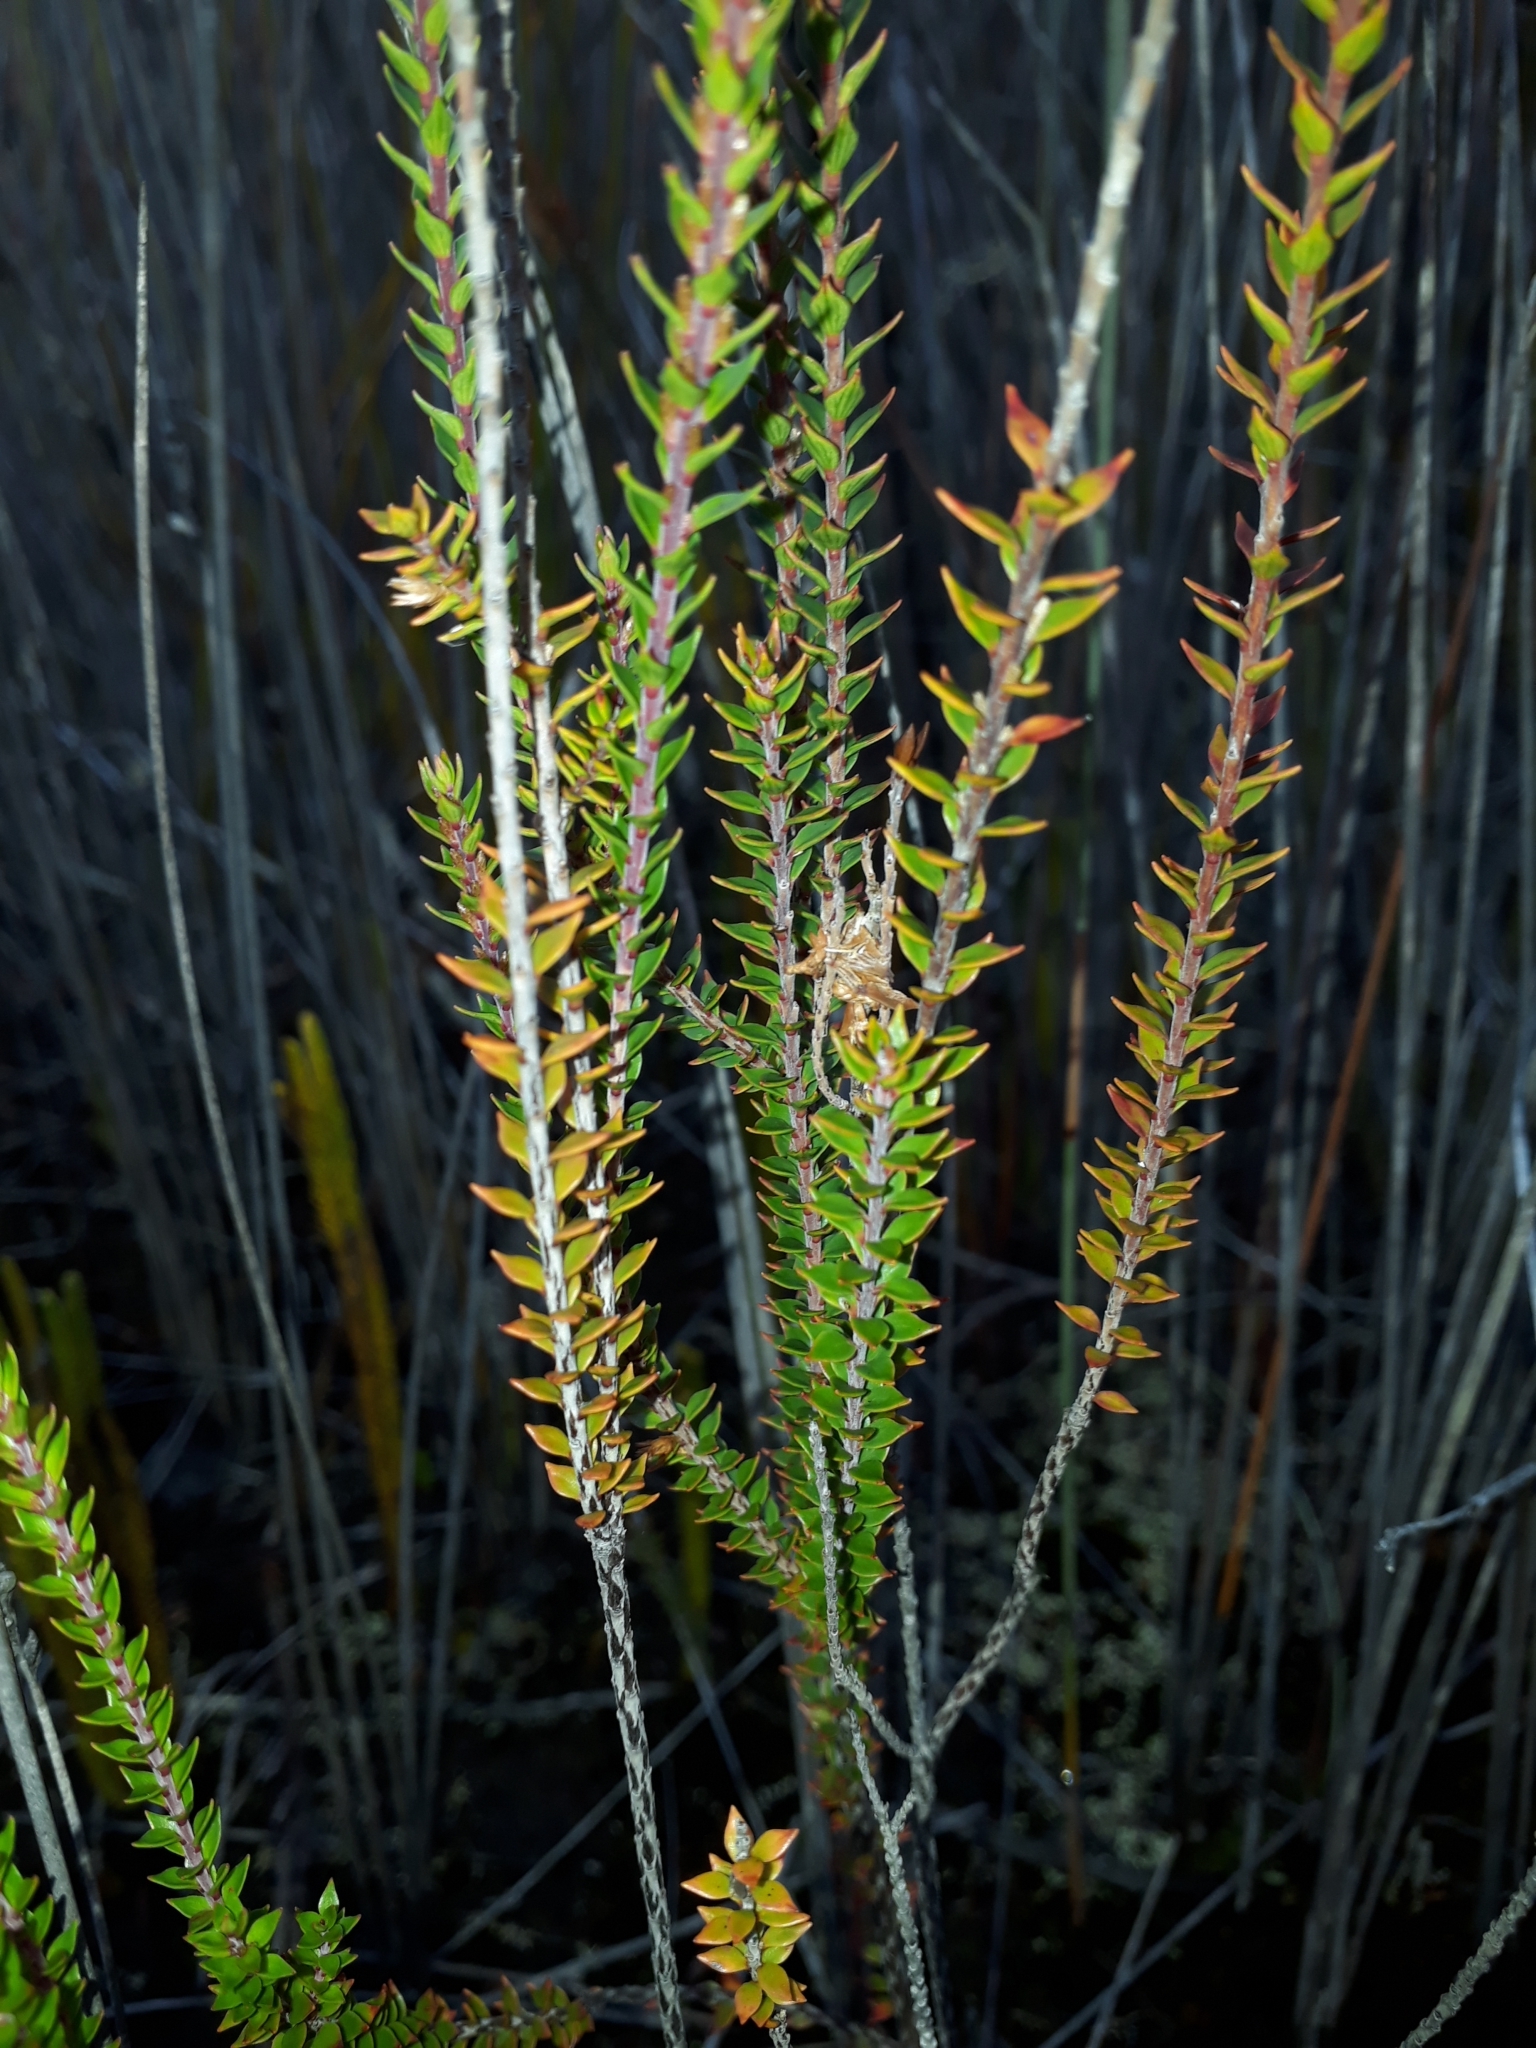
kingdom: Plantae
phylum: Tracheophyta
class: Magnoliopsida
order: Ericales
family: Ericaceae
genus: Epacris
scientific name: Epacris pauciflora
